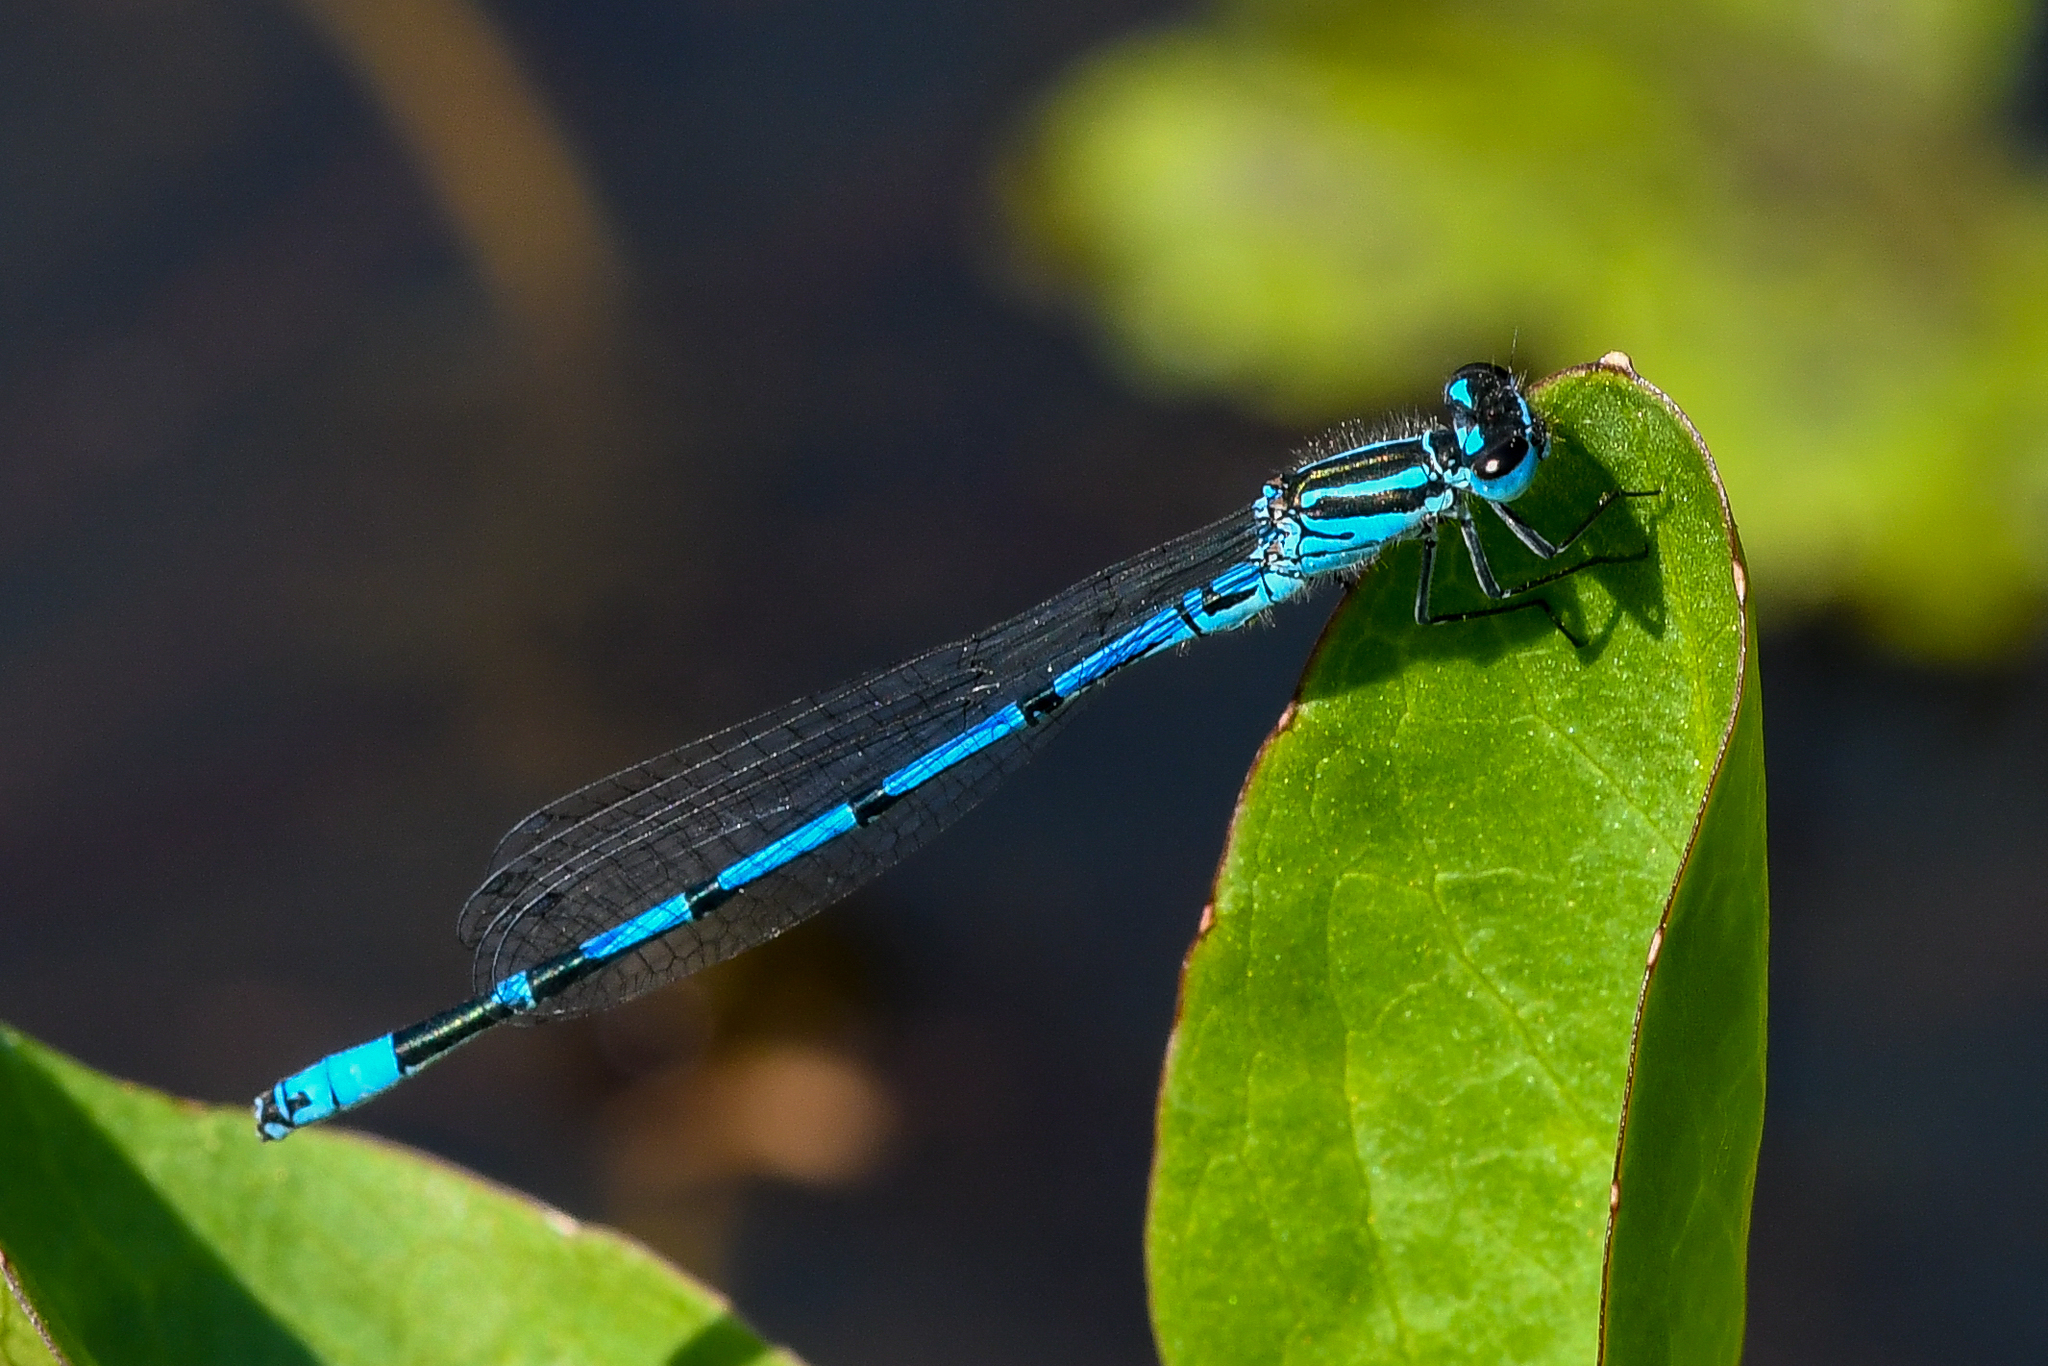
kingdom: Animalia
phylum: Arthropoda
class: Insecta
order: Odonata
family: Coenagrionidae
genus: Coenagrion
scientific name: Coenagrion puella
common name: Azure damselfly
